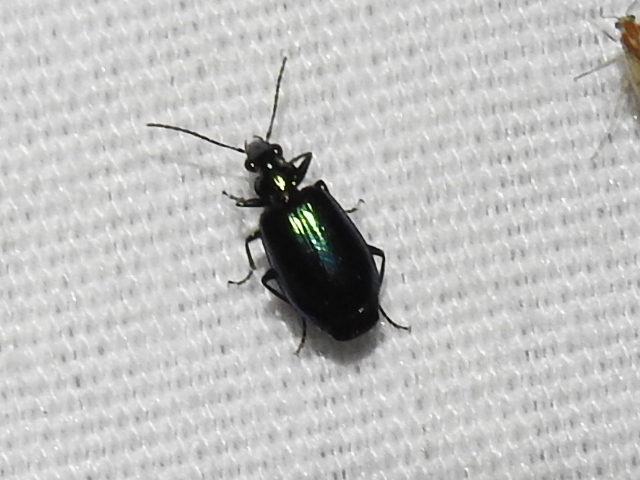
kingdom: Animalia
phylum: Arthropoda
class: Insecta
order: Coleoptera
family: Carabidae
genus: Lebia
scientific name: Lebia viridis
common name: Flower lebia beetle
